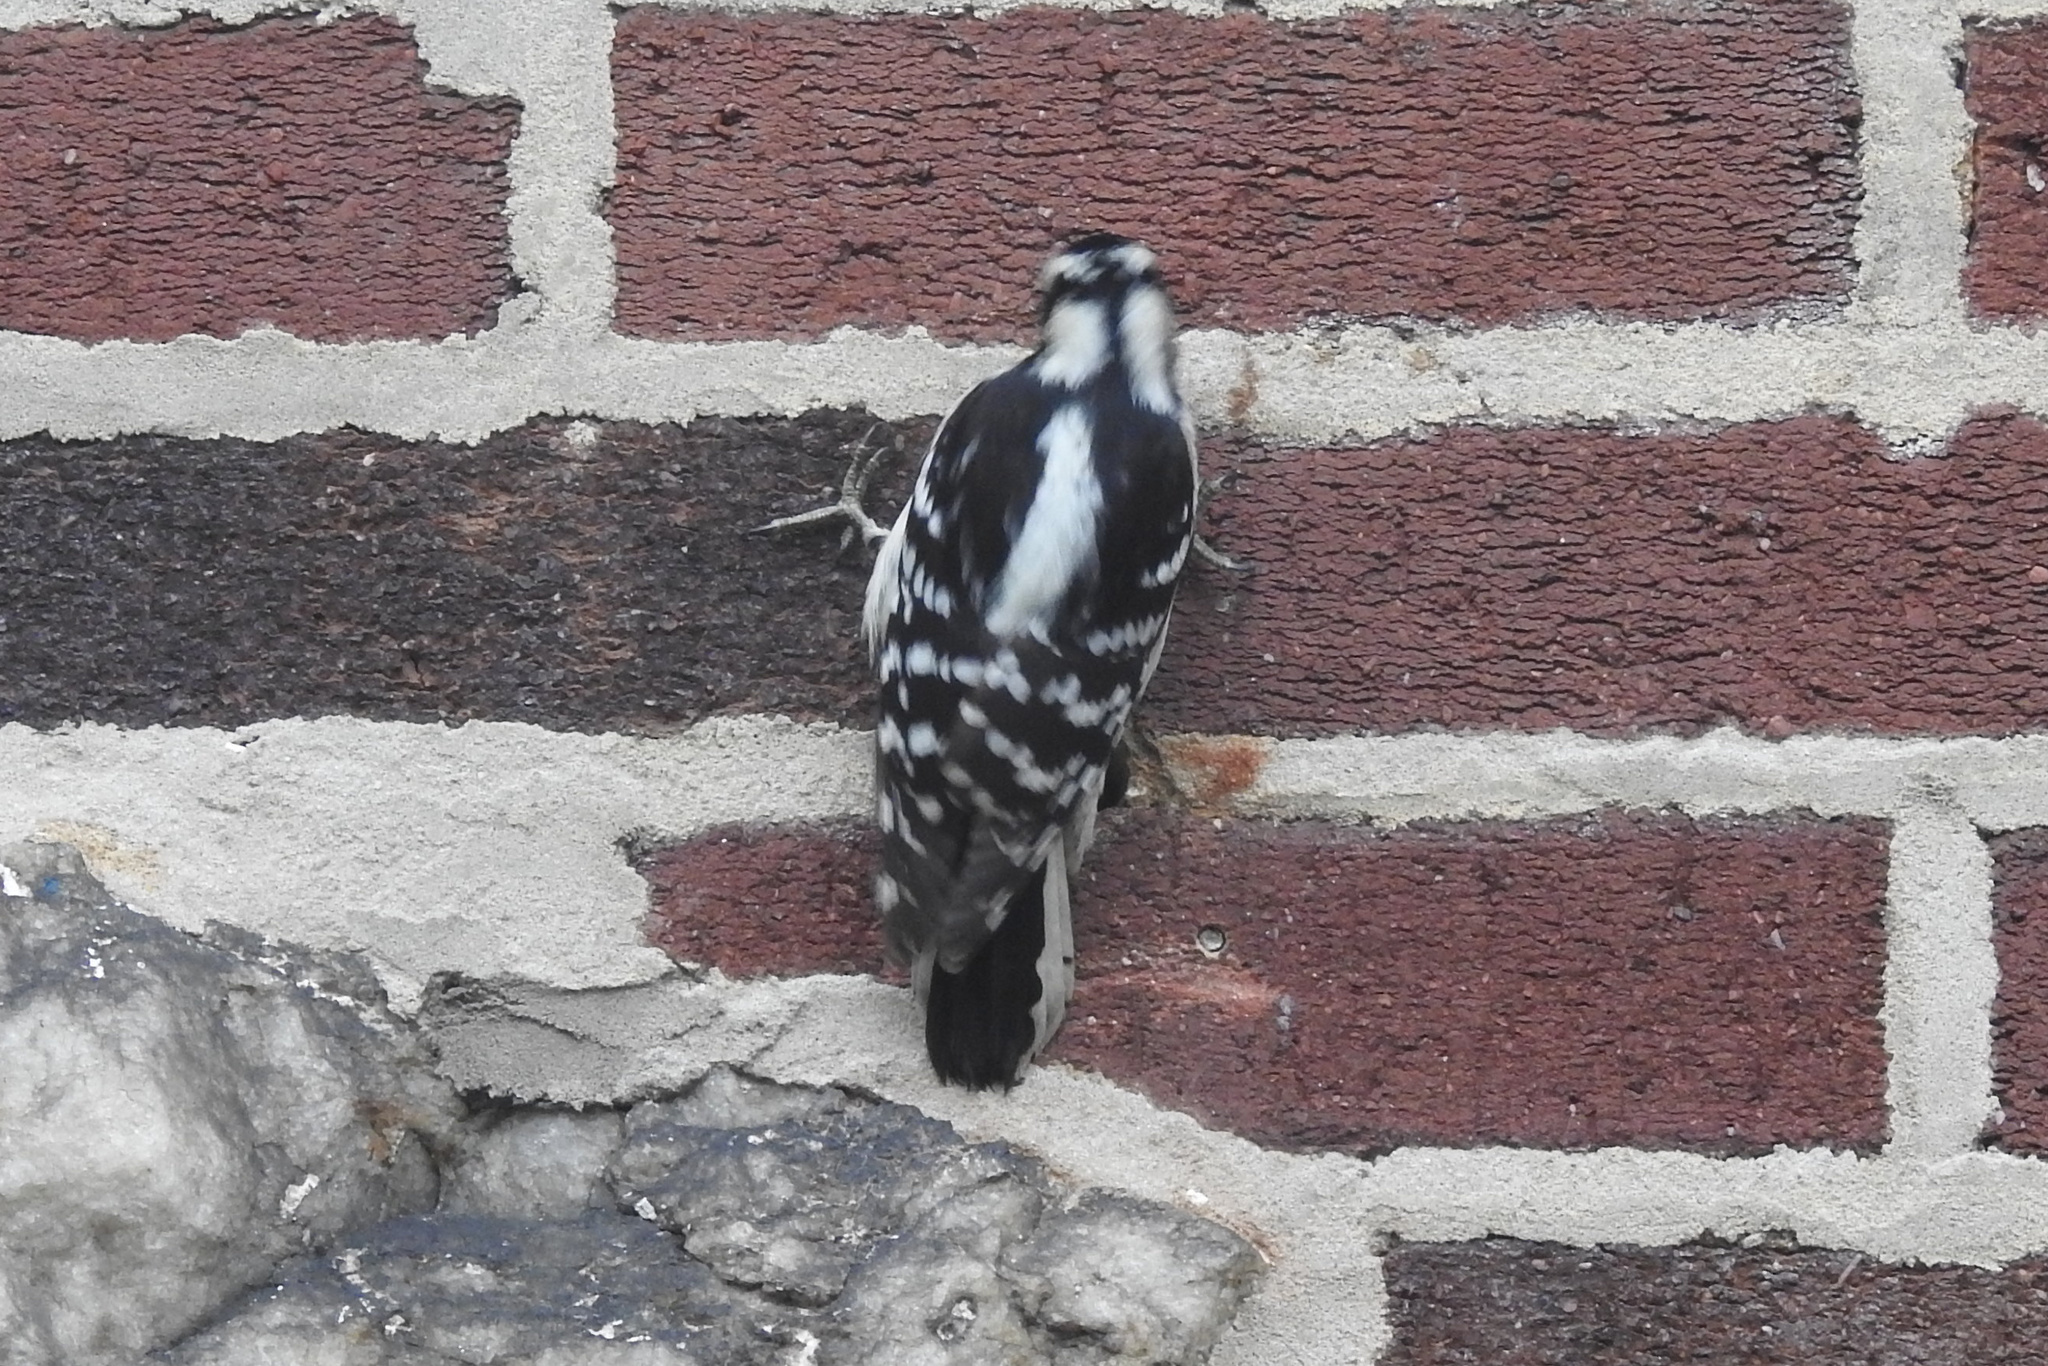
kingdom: Animalia
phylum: Chordata
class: Aves
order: Piciformes
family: Picidae
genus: Dryobates
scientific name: Dryobates pubescens
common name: Downy woodpecker
